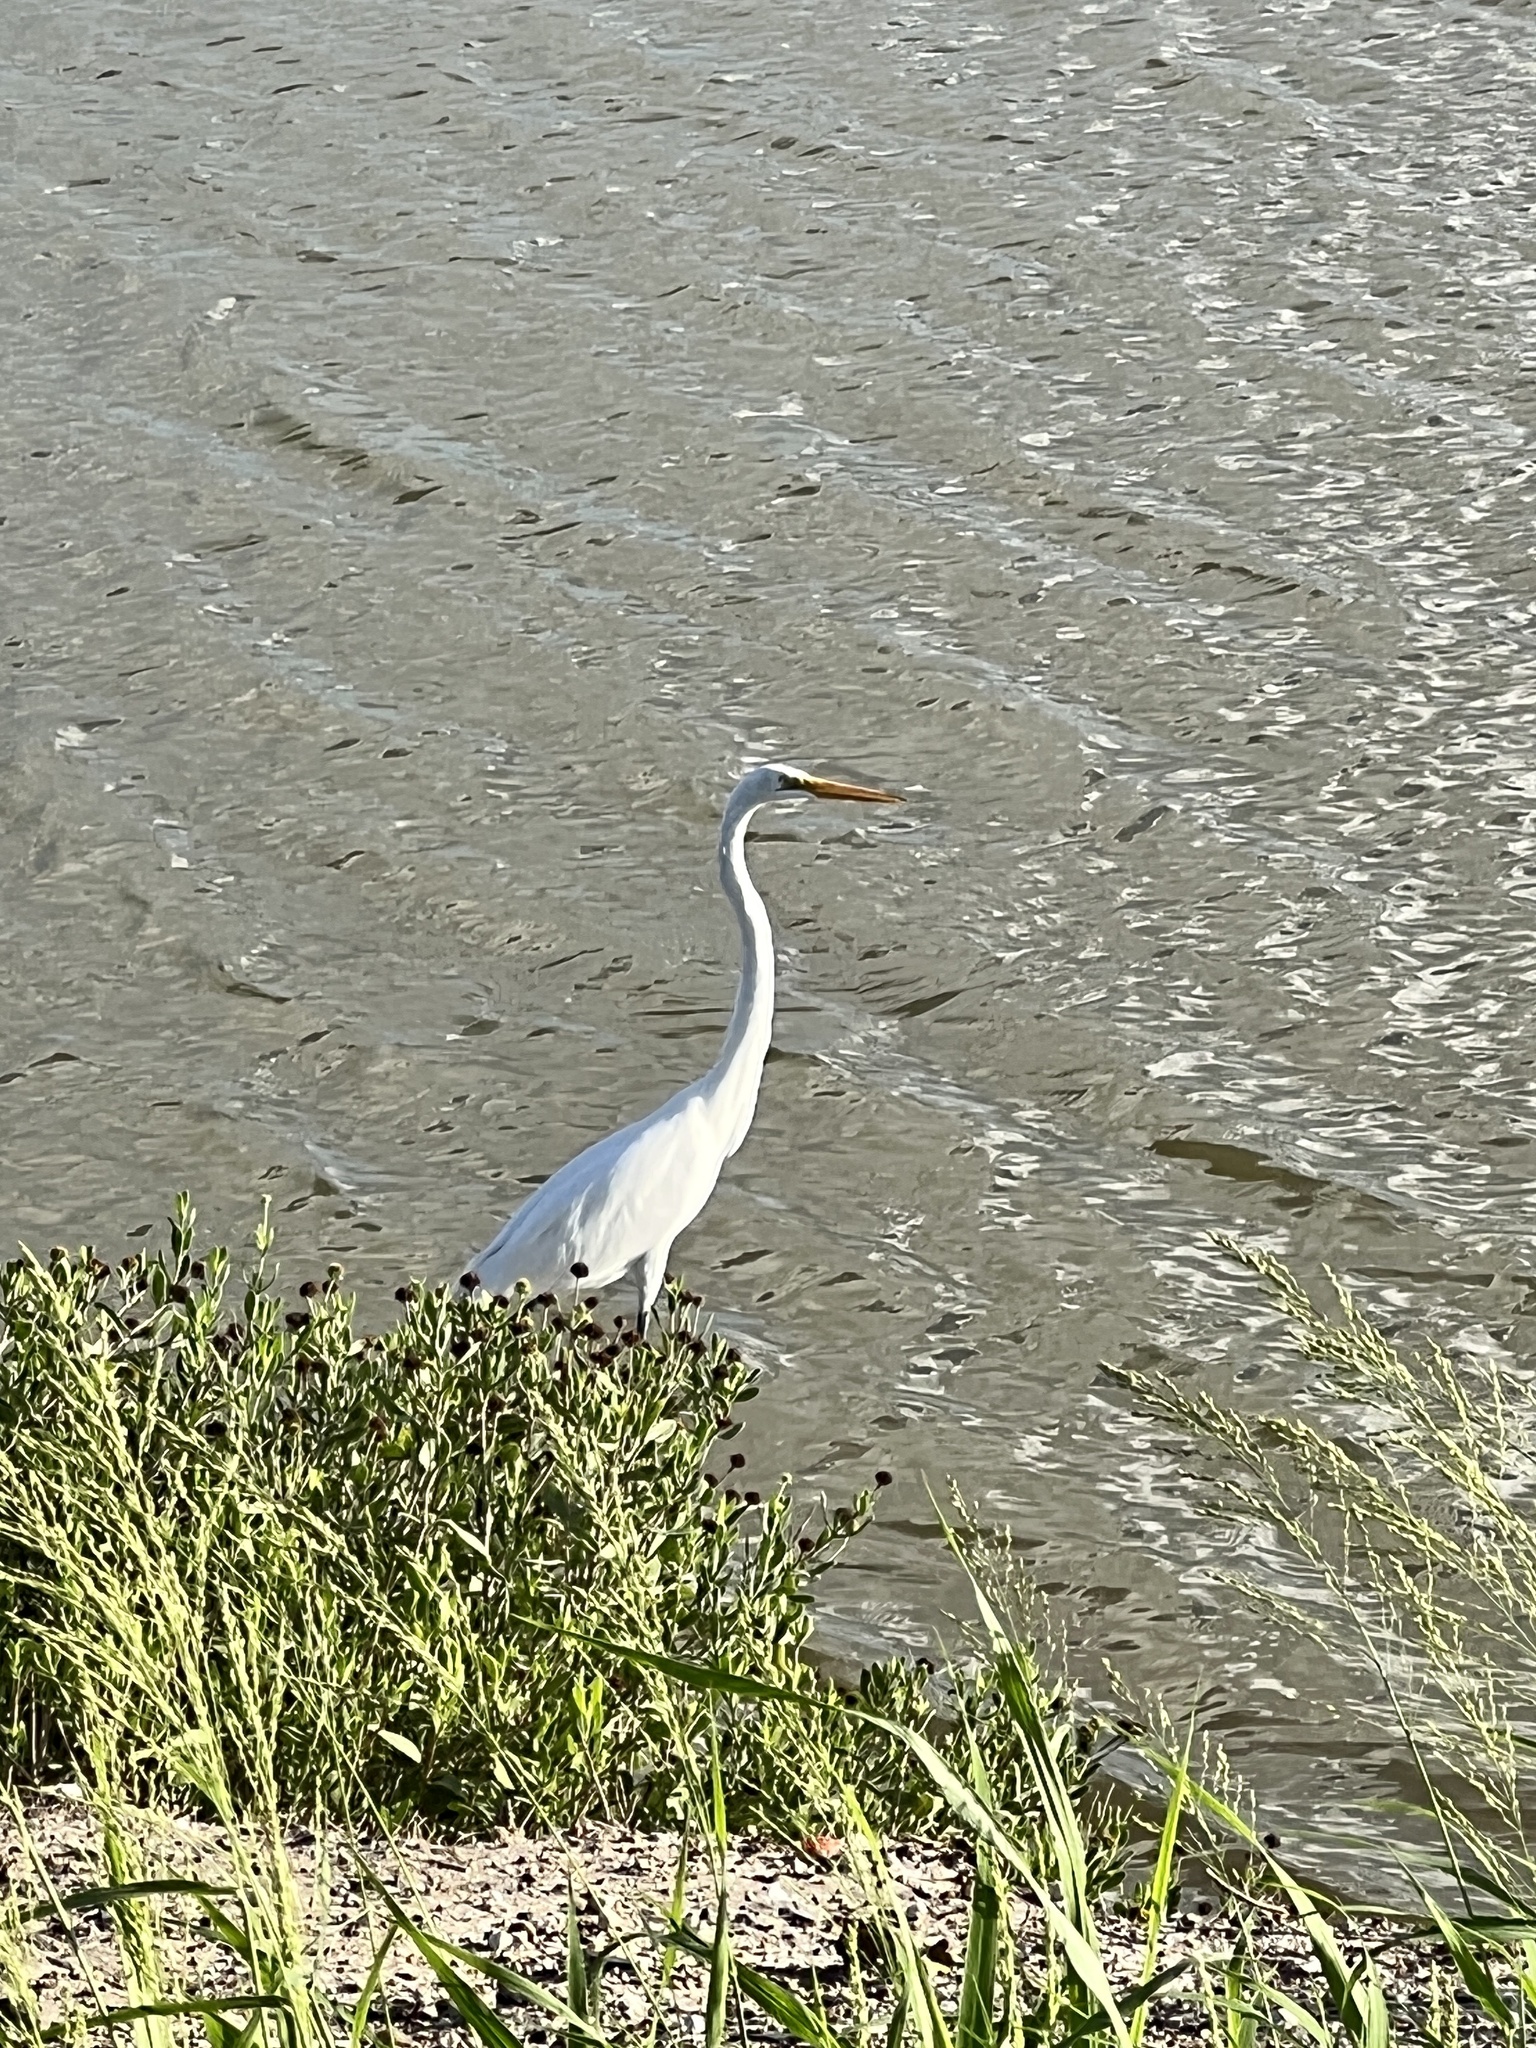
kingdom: Animalia
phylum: Chordata
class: Aves
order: Pelecaniformes
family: Ardeidae
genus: Ardea
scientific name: Ardea alba
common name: Great egret
